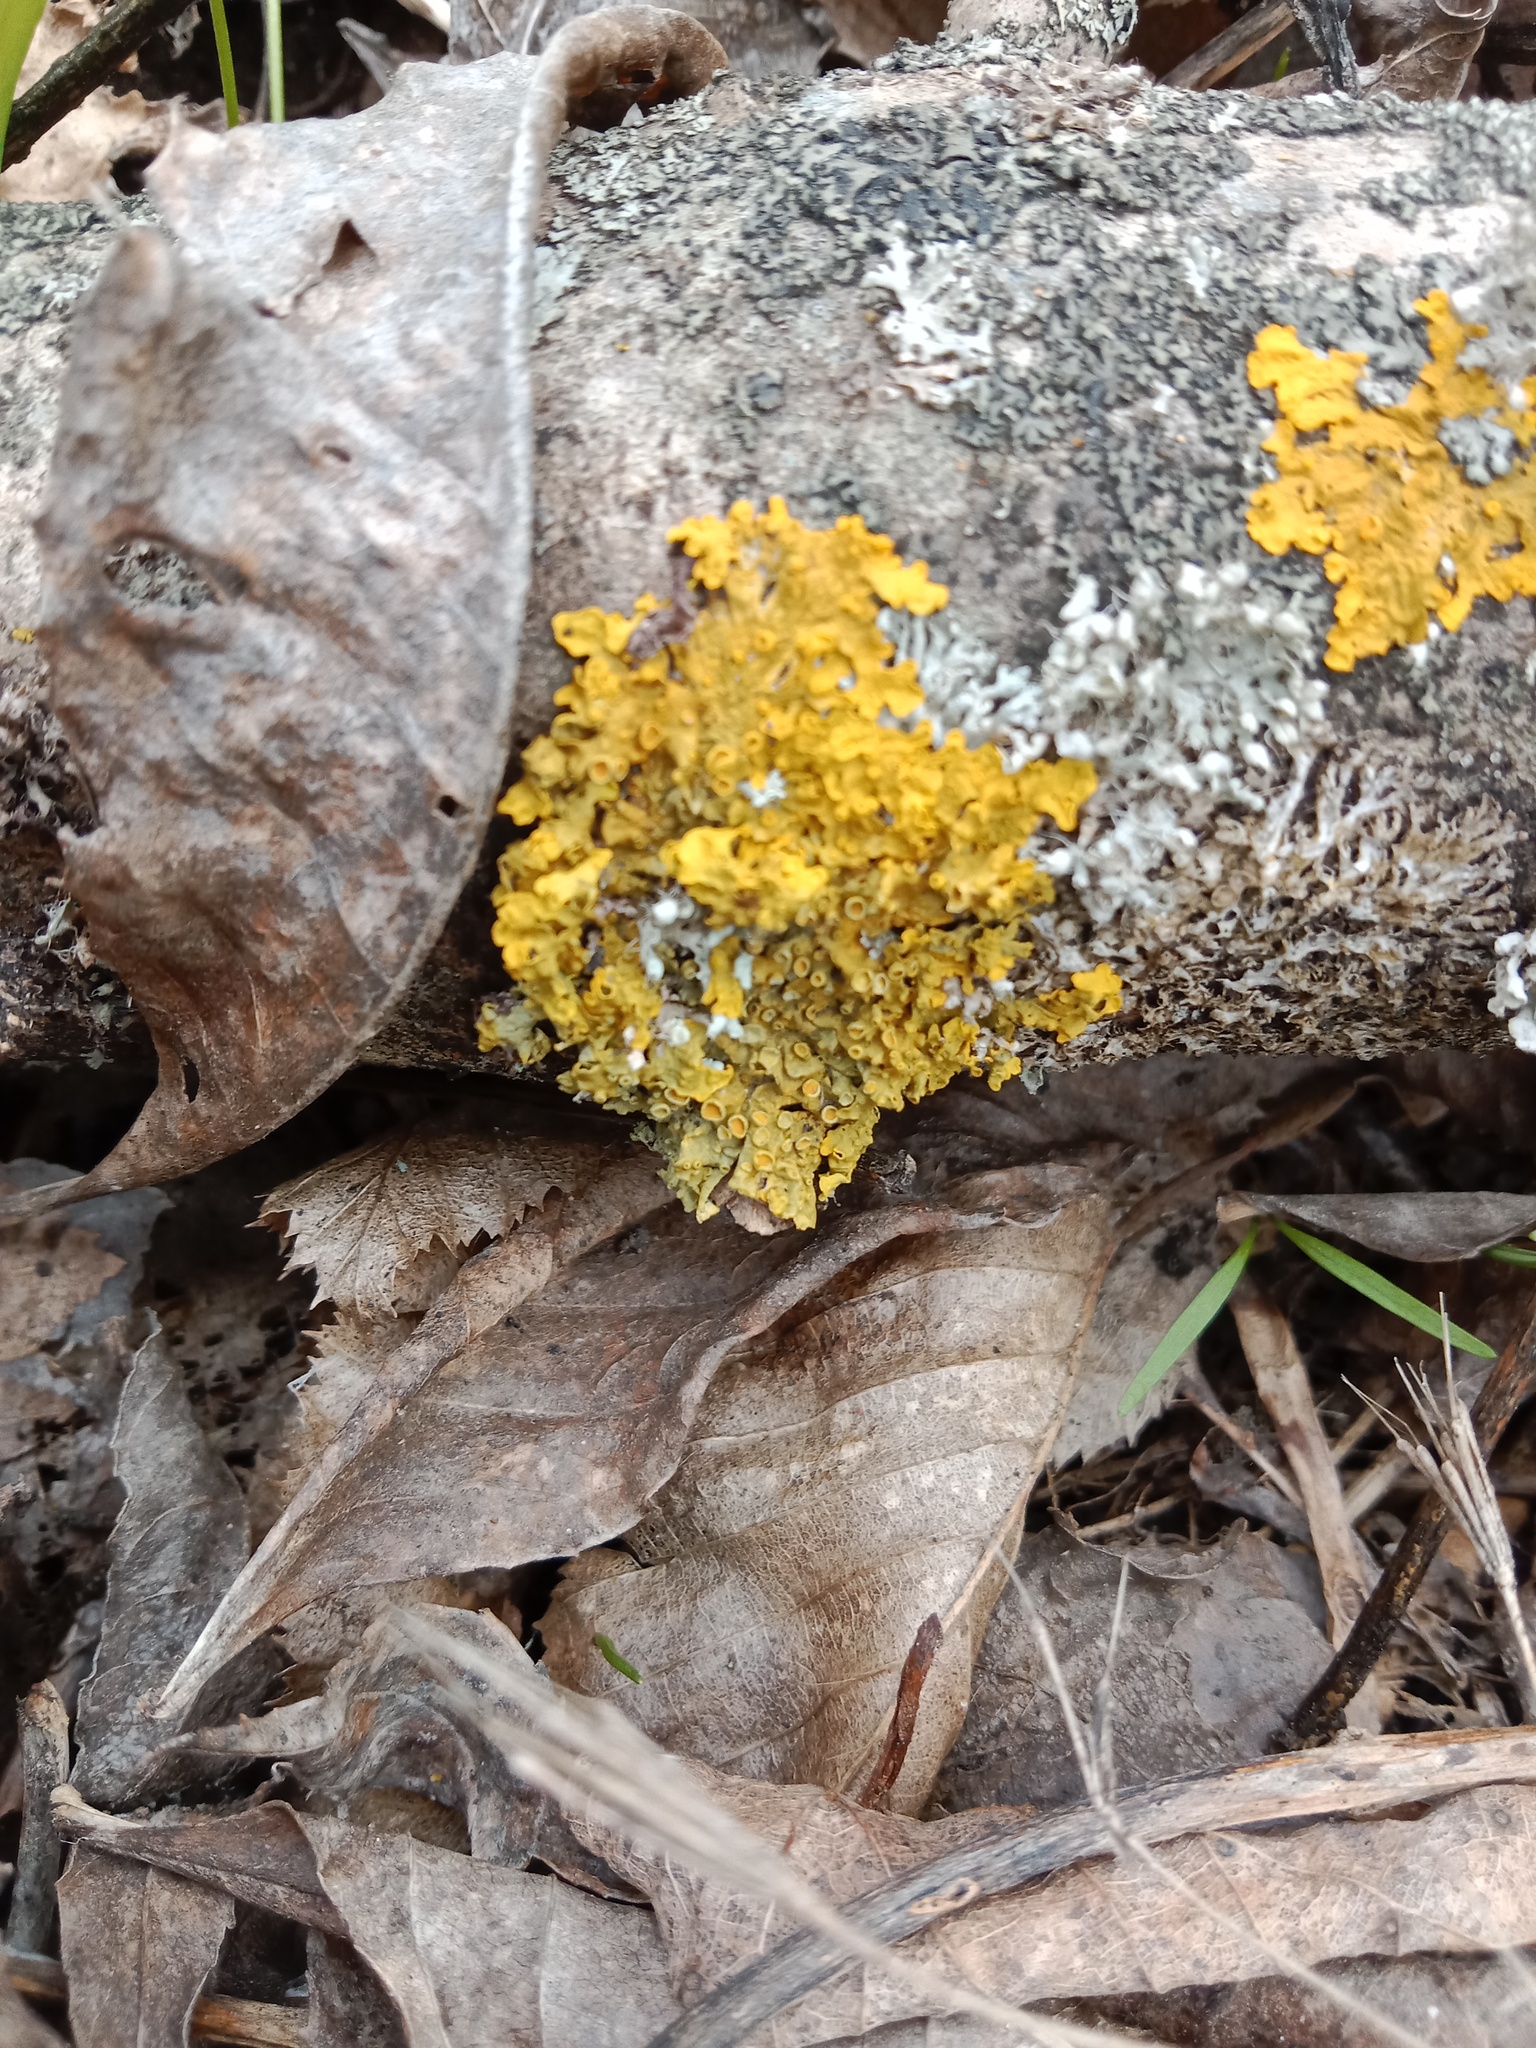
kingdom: Fungi
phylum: Ascomycota
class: Lecanoromycetes
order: Teloschistales
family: Teloschistaceae
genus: Xanthoria
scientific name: Xanthoria parietina
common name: Common orange lichen
